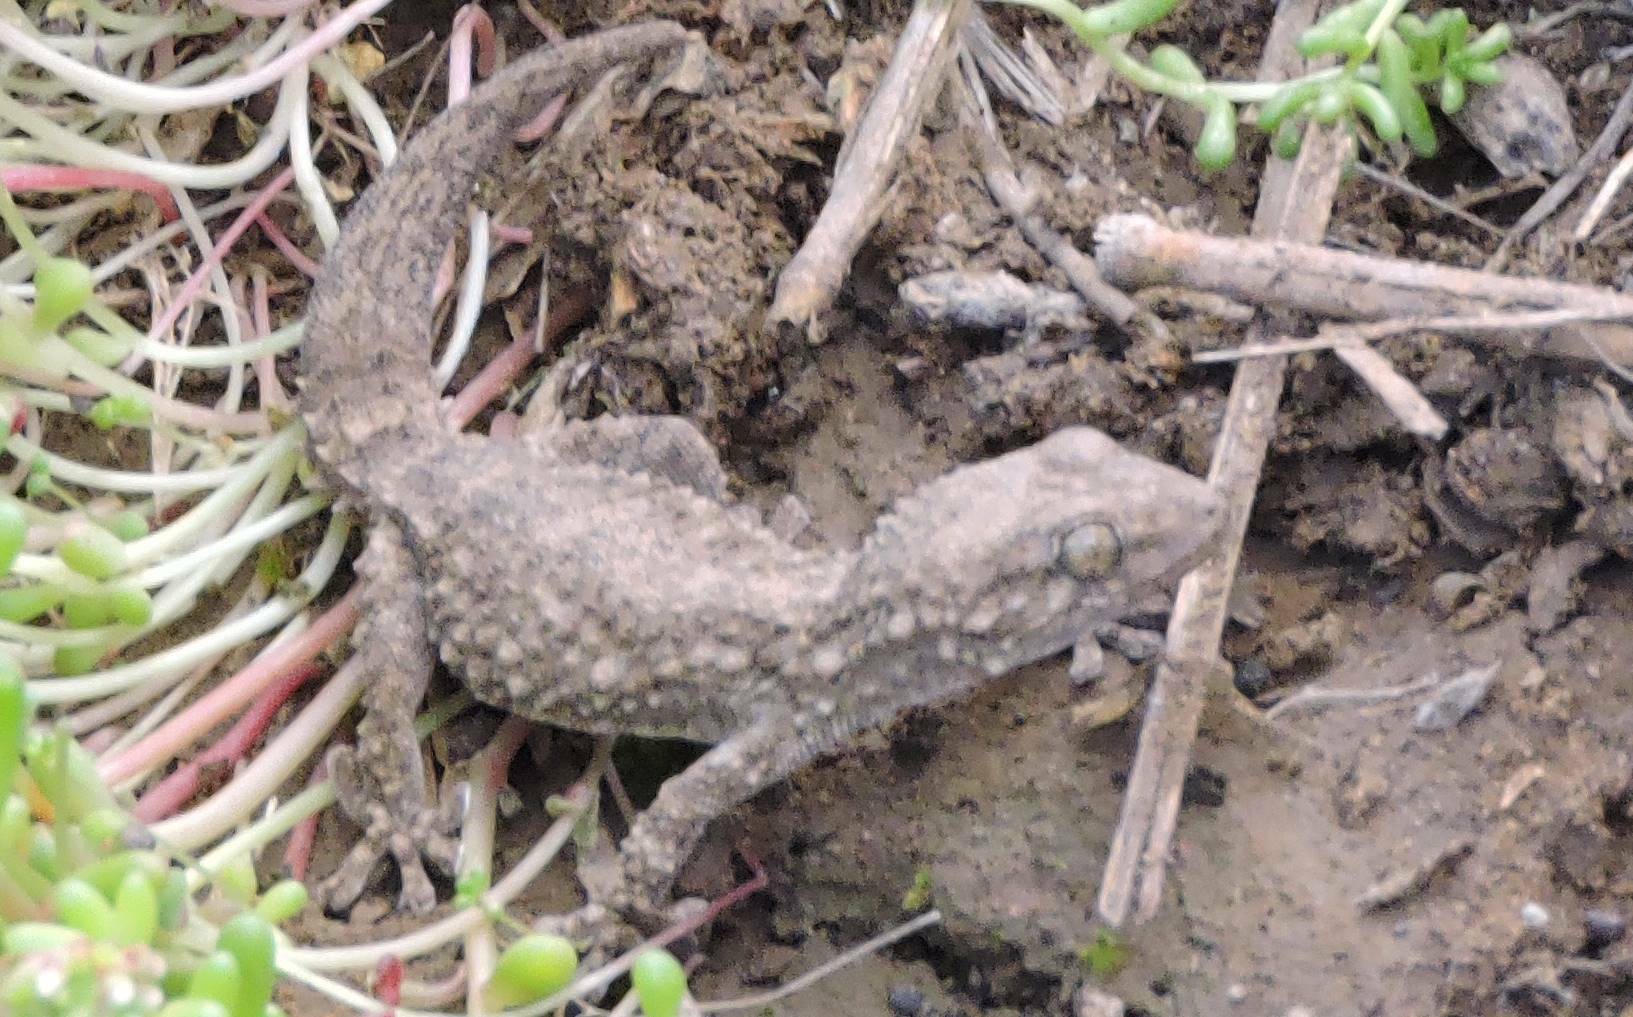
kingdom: Animalia
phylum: Chordata
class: Squamata
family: Phyllodactylidae
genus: Tarentola
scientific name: Tarentola mauritanica
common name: Moorish gecko
